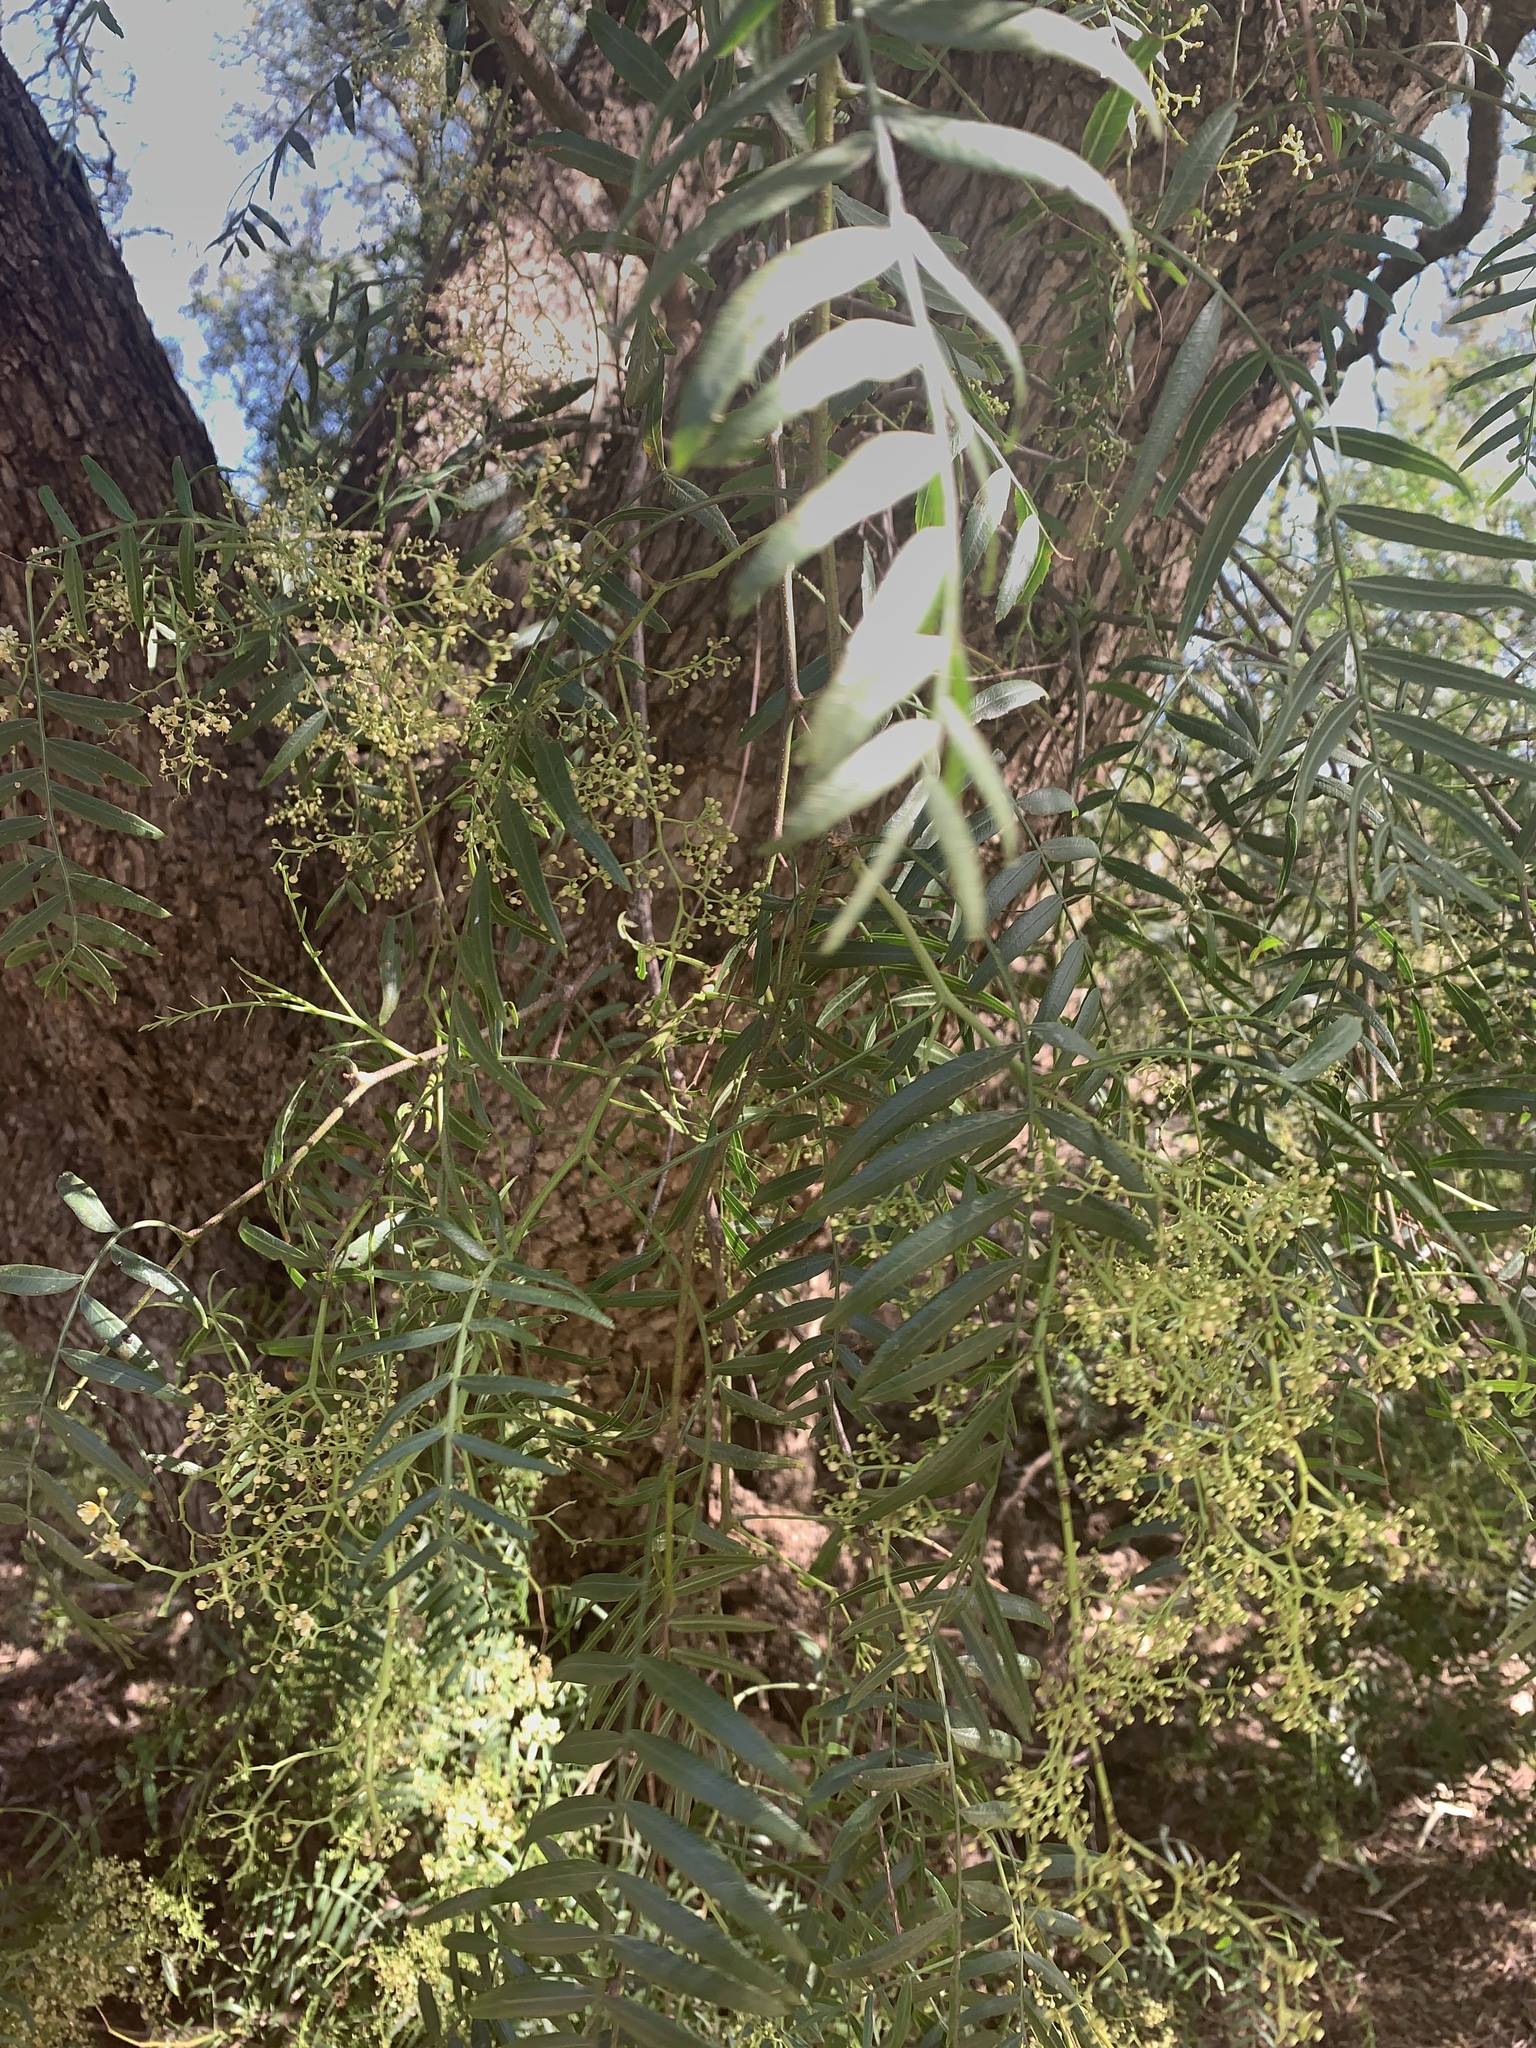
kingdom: Plantae
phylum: Tracheophyta
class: Magnoliopsida
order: Sapindales
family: Anacardiaceae
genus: Schinus
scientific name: Schinus molle
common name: Peruvian peppertree
